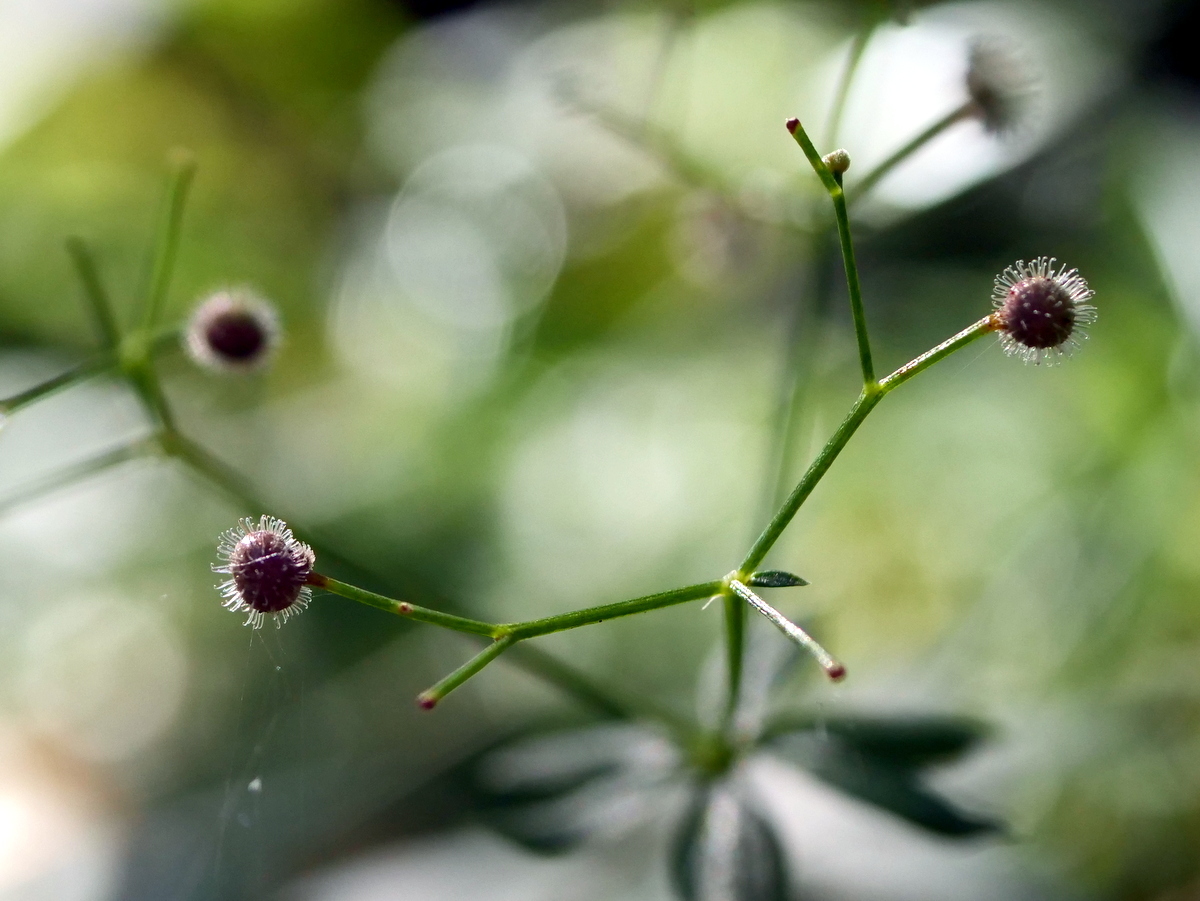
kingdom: Plantae
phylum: Tracheophyta
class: Magnoliopsida
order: Gentianales
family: Rubiaceae
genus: Galium
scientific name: Galium odoratum
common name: Sweet woodruff
